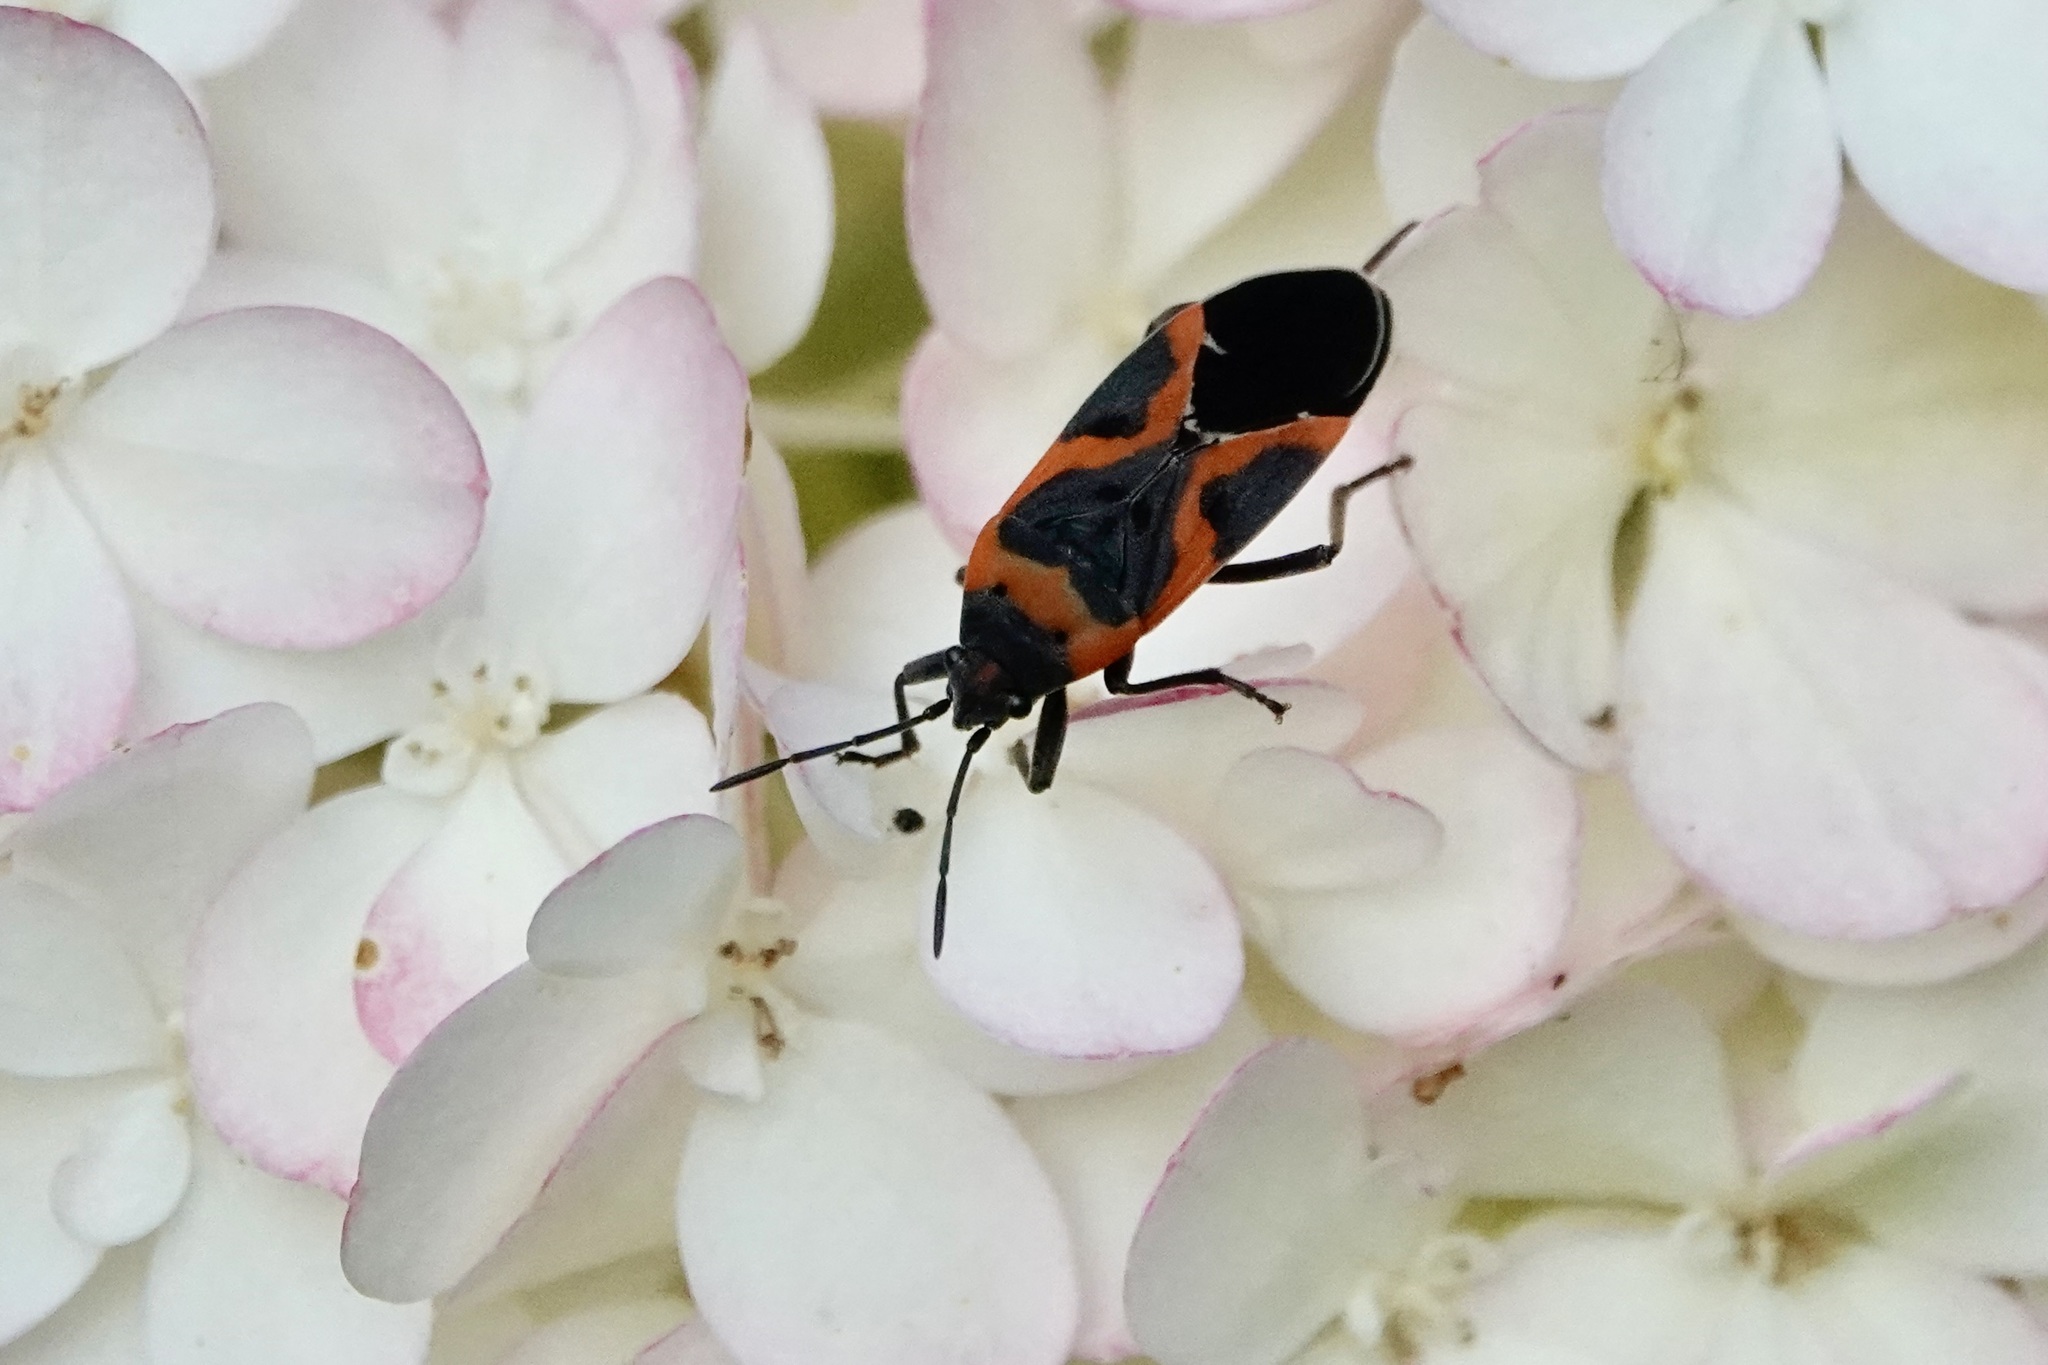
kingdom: Animalia
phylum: Arthropoda
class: Insecta
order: Hemiptera
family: Lygaeidae
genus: Lygaeus
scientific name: Lygaeus kalmii
